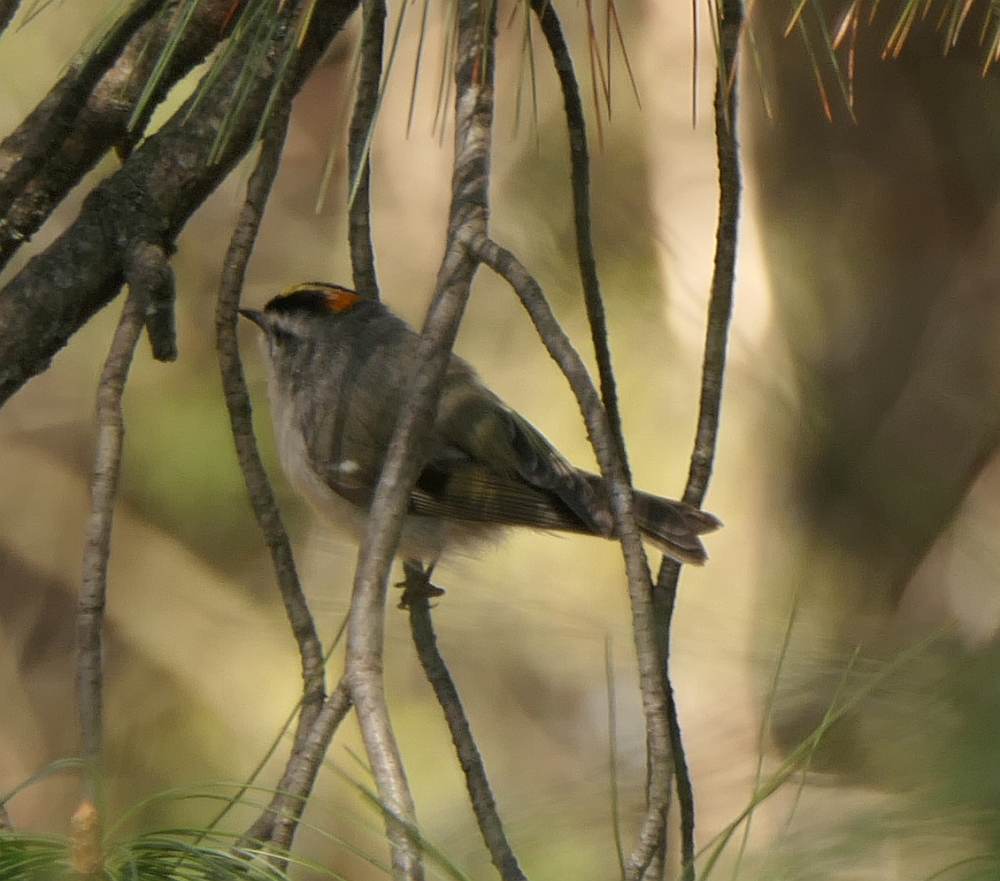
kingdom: Animalia
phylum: Chordata
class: Aves
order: Passeriformes
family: Regulidae
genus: Regulus
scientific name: Regulus satrapa
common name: Golden-crowned kinglet
